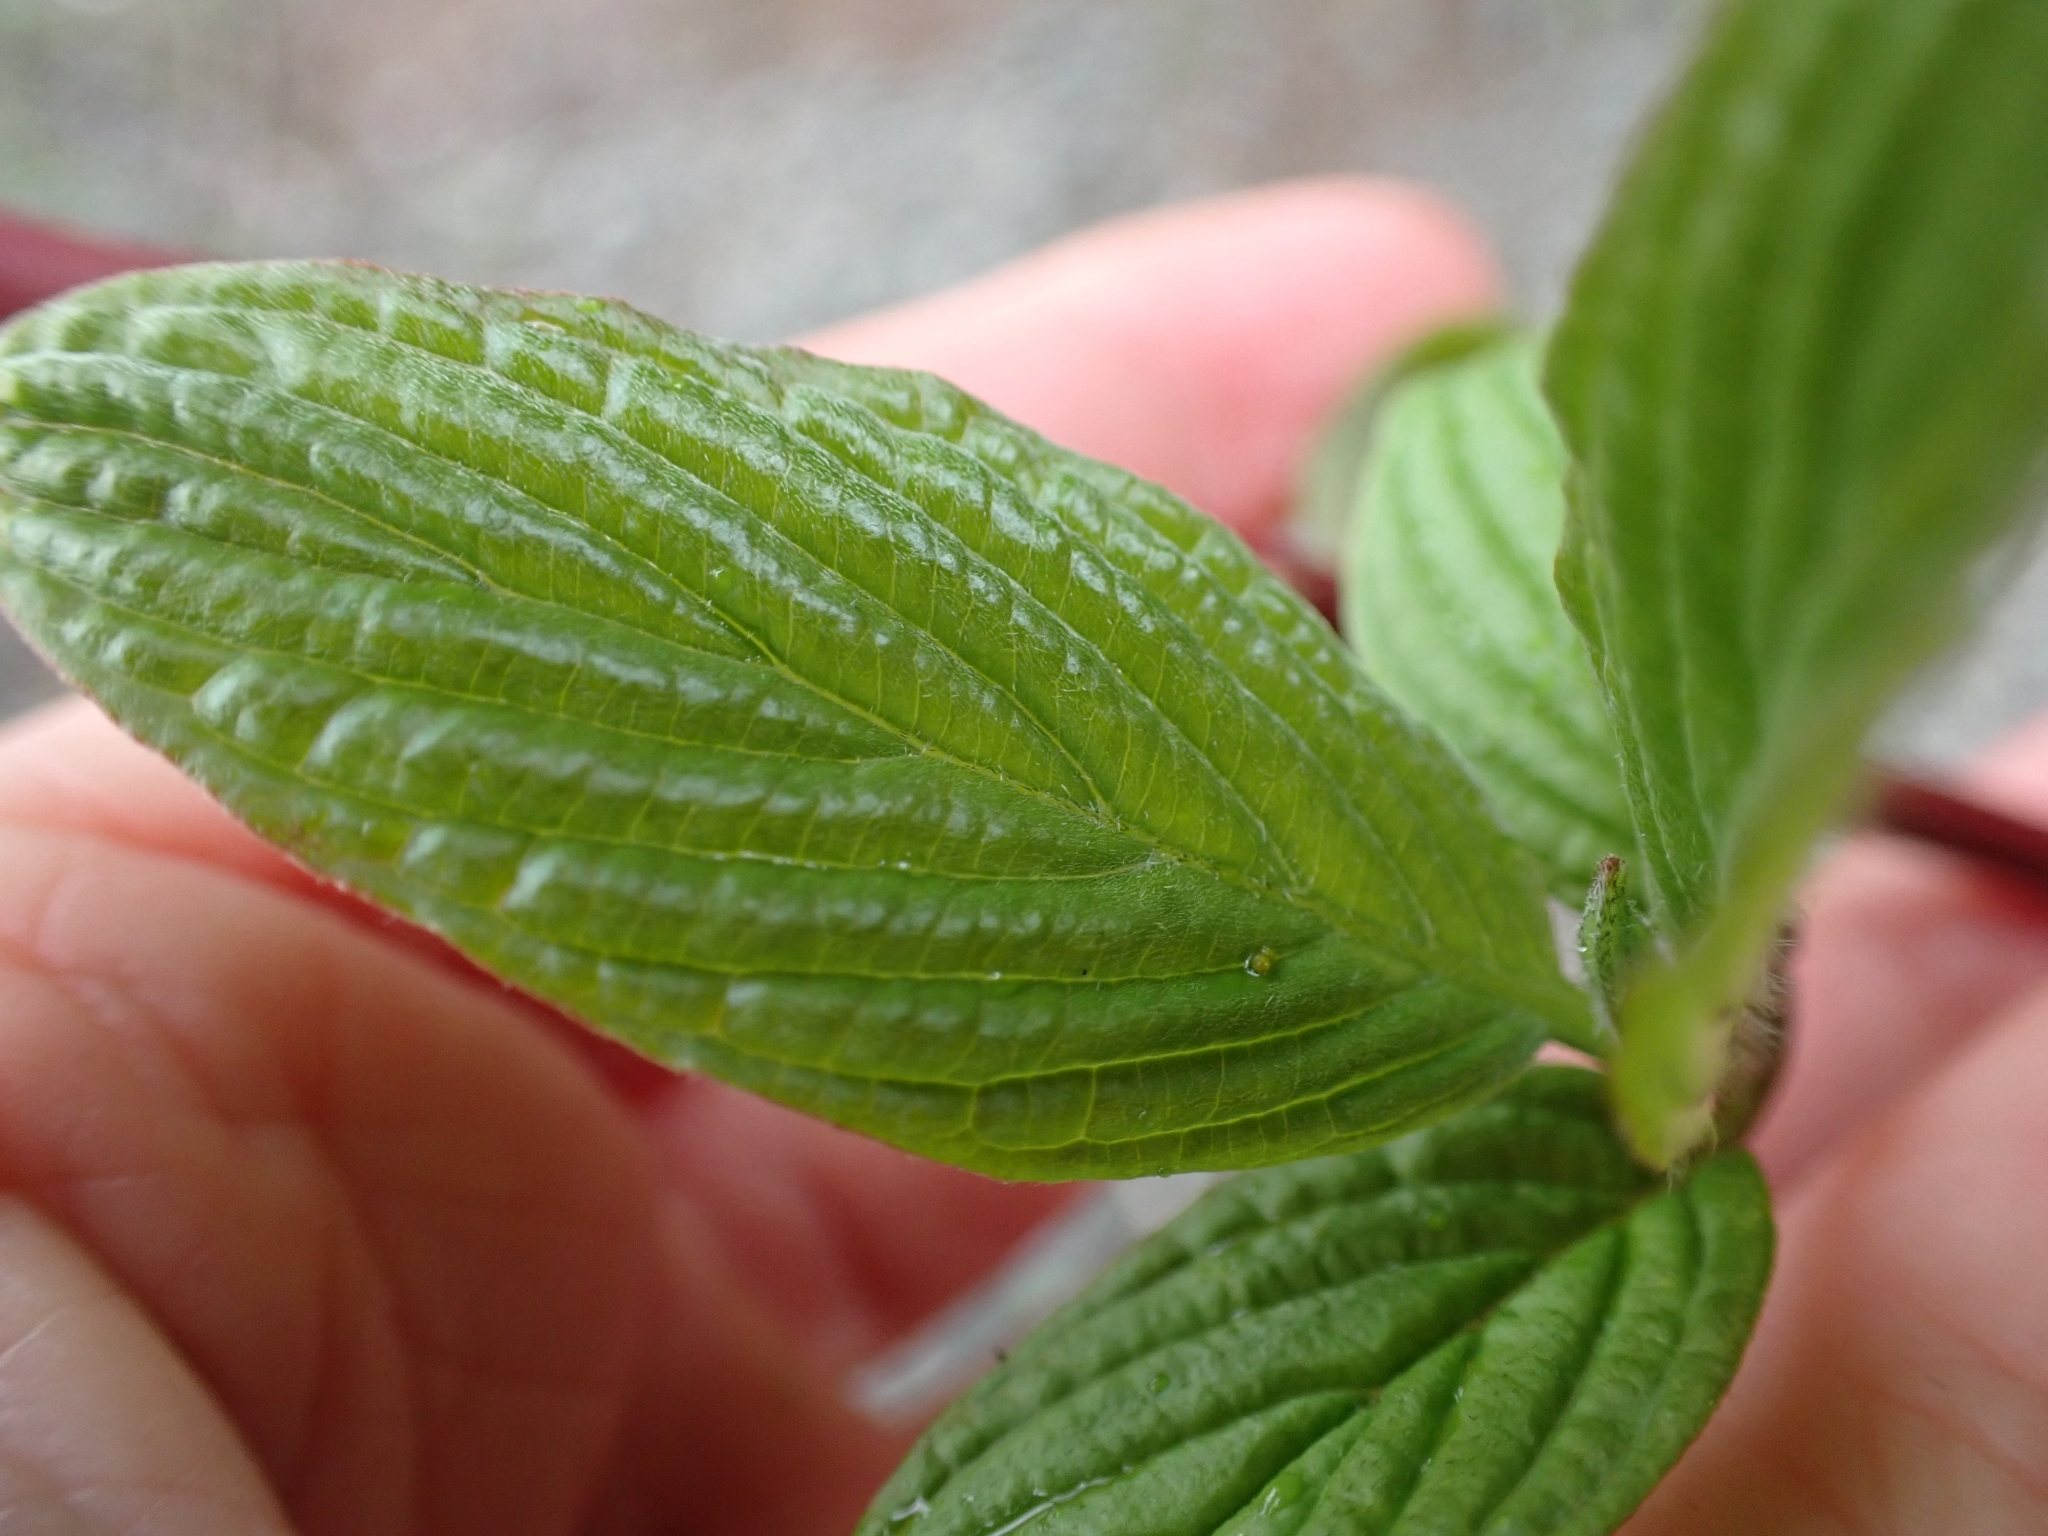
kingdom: Plantae
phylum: Tracheophyta
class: Magnoliopsida
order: Cornales
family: Cornaceae
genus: Cornus
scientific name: Cornus sericea
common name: Red-osier dogwood
